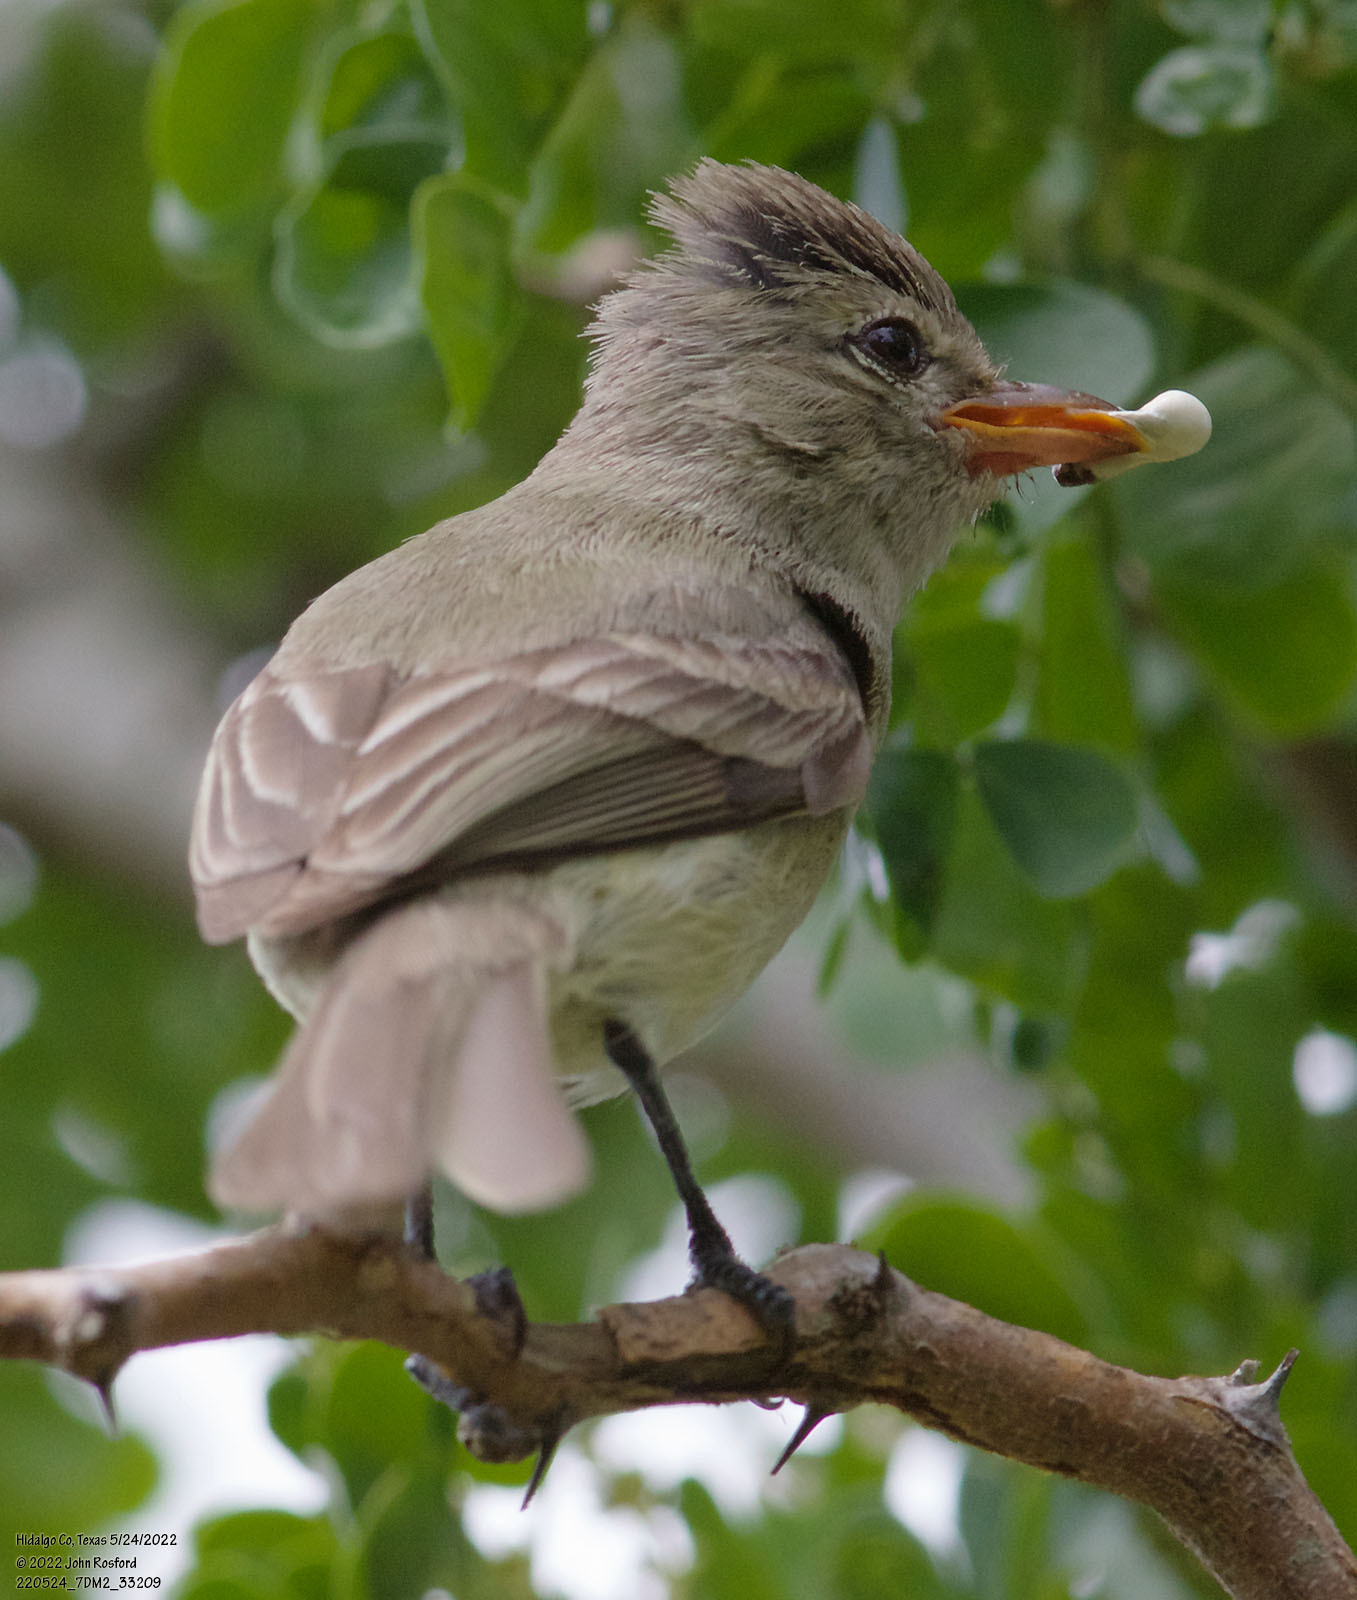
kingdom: Animalia
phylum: Chordata
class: Aves
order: Passeriformes
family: Tyrannidae
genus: Camptostoma
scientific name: Camptostoma imberbe
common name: Northern beardless-tyrannulet
